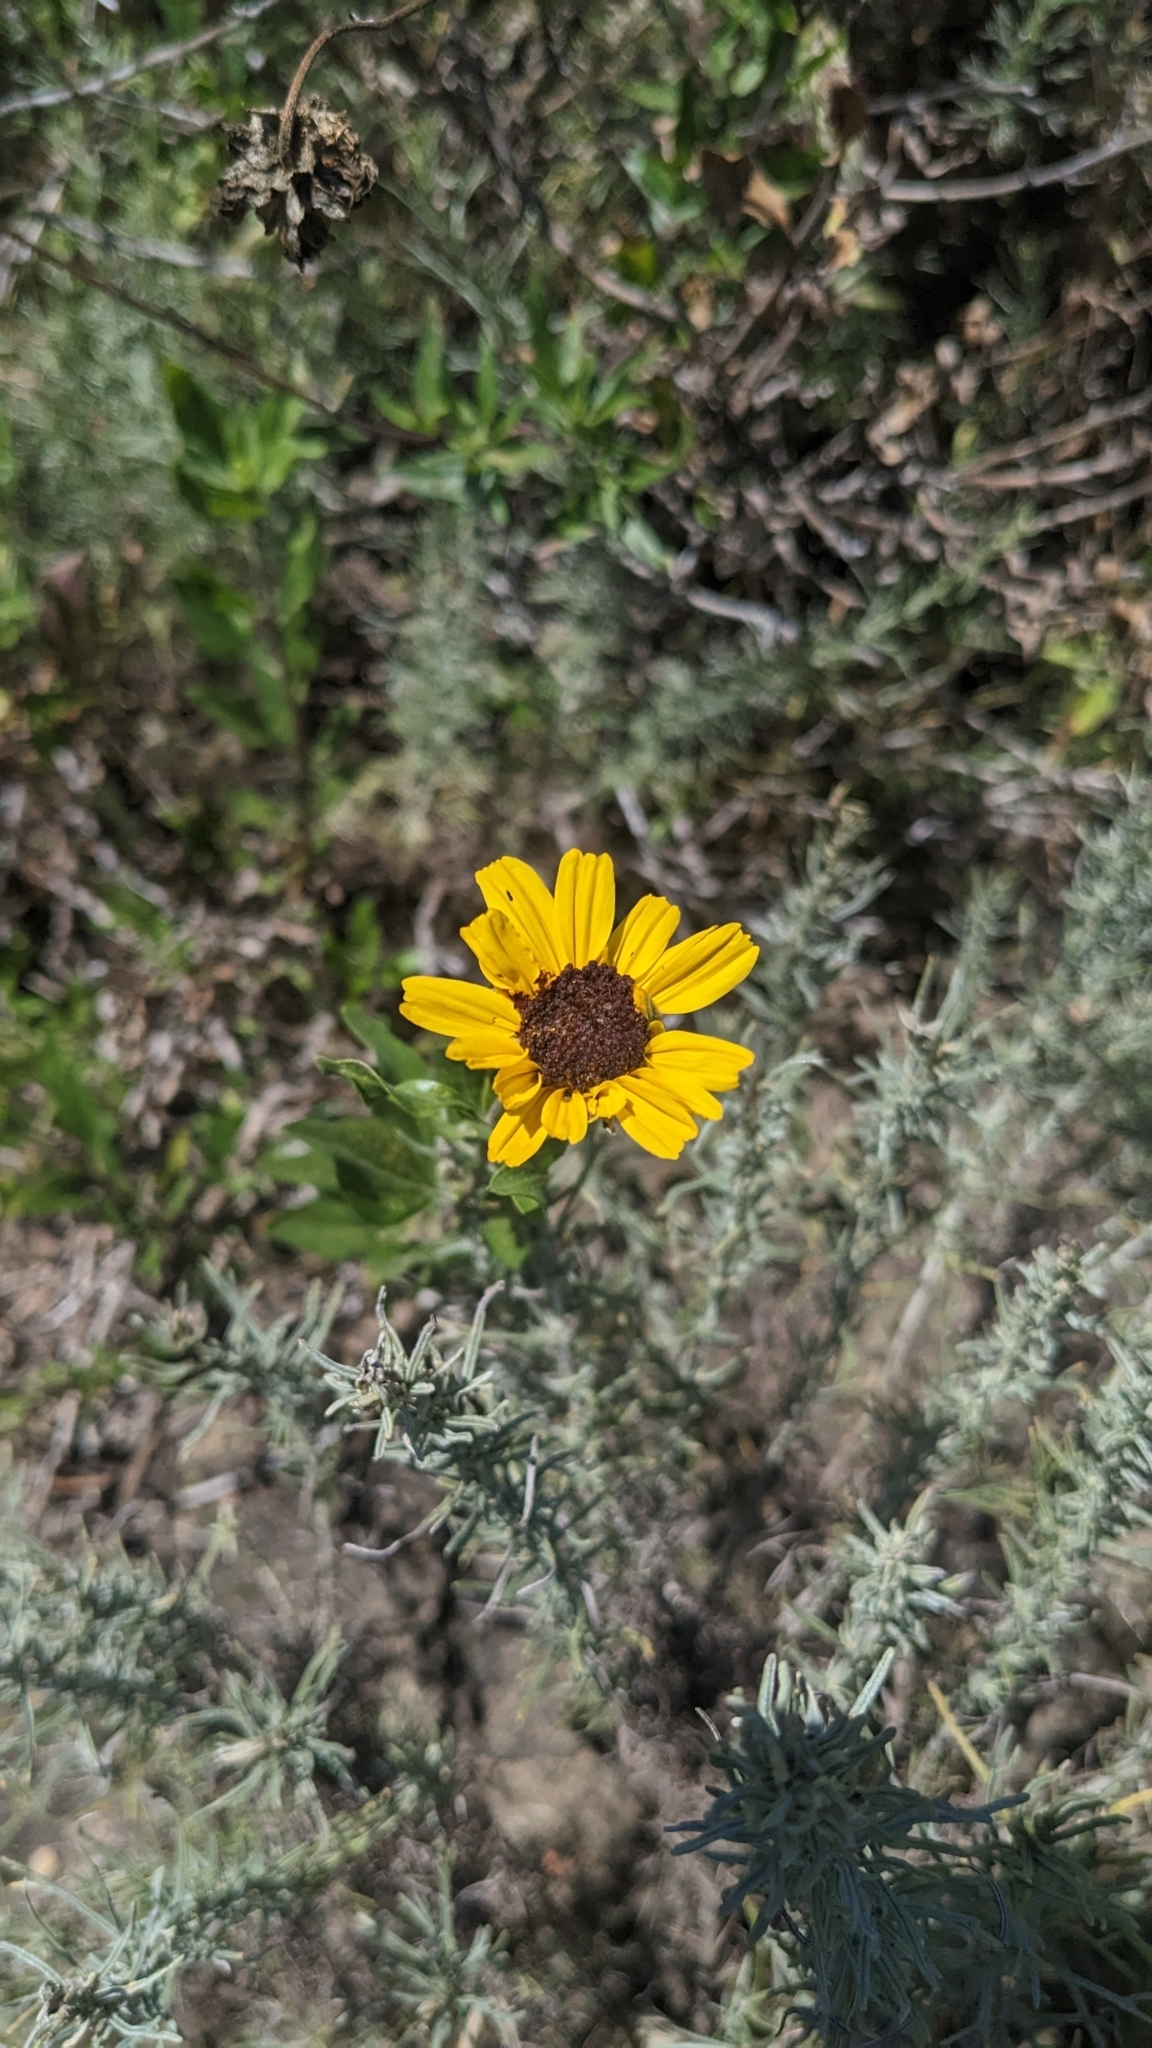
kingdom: Plantae
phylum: Tracheophyta
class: Magnoliopsida
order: Asterales
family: Asteraceae
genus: Encelia
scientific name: Encelia californica
